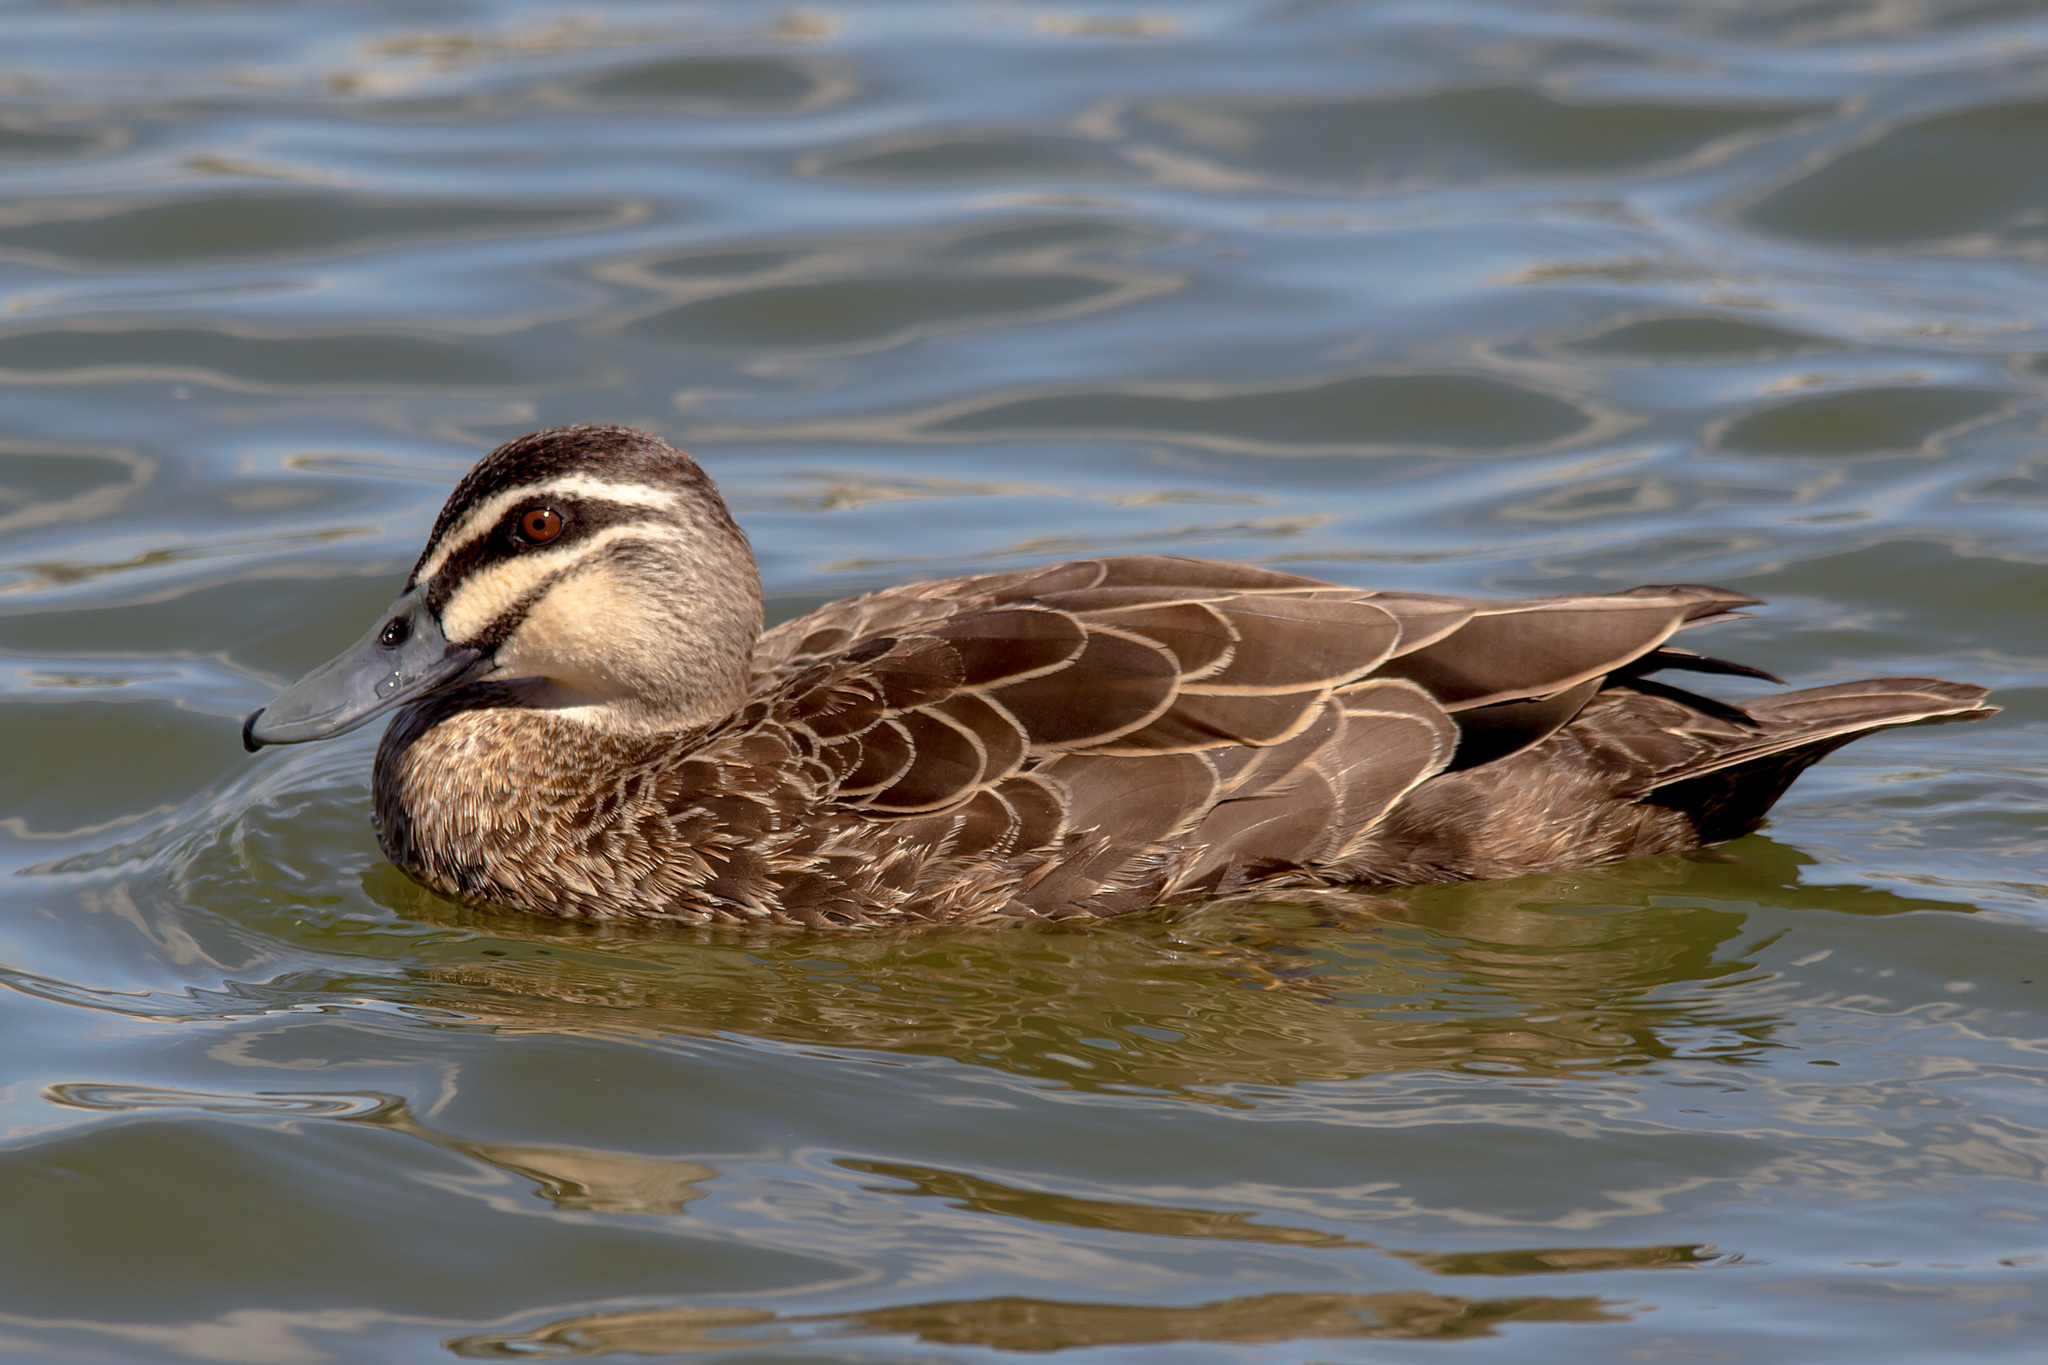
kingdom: Animalia
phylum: Chordata
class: Aves
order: Anseriformes
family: Anatidae
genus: Anas
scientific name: Anas superciliosa
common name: Pacific black duck
